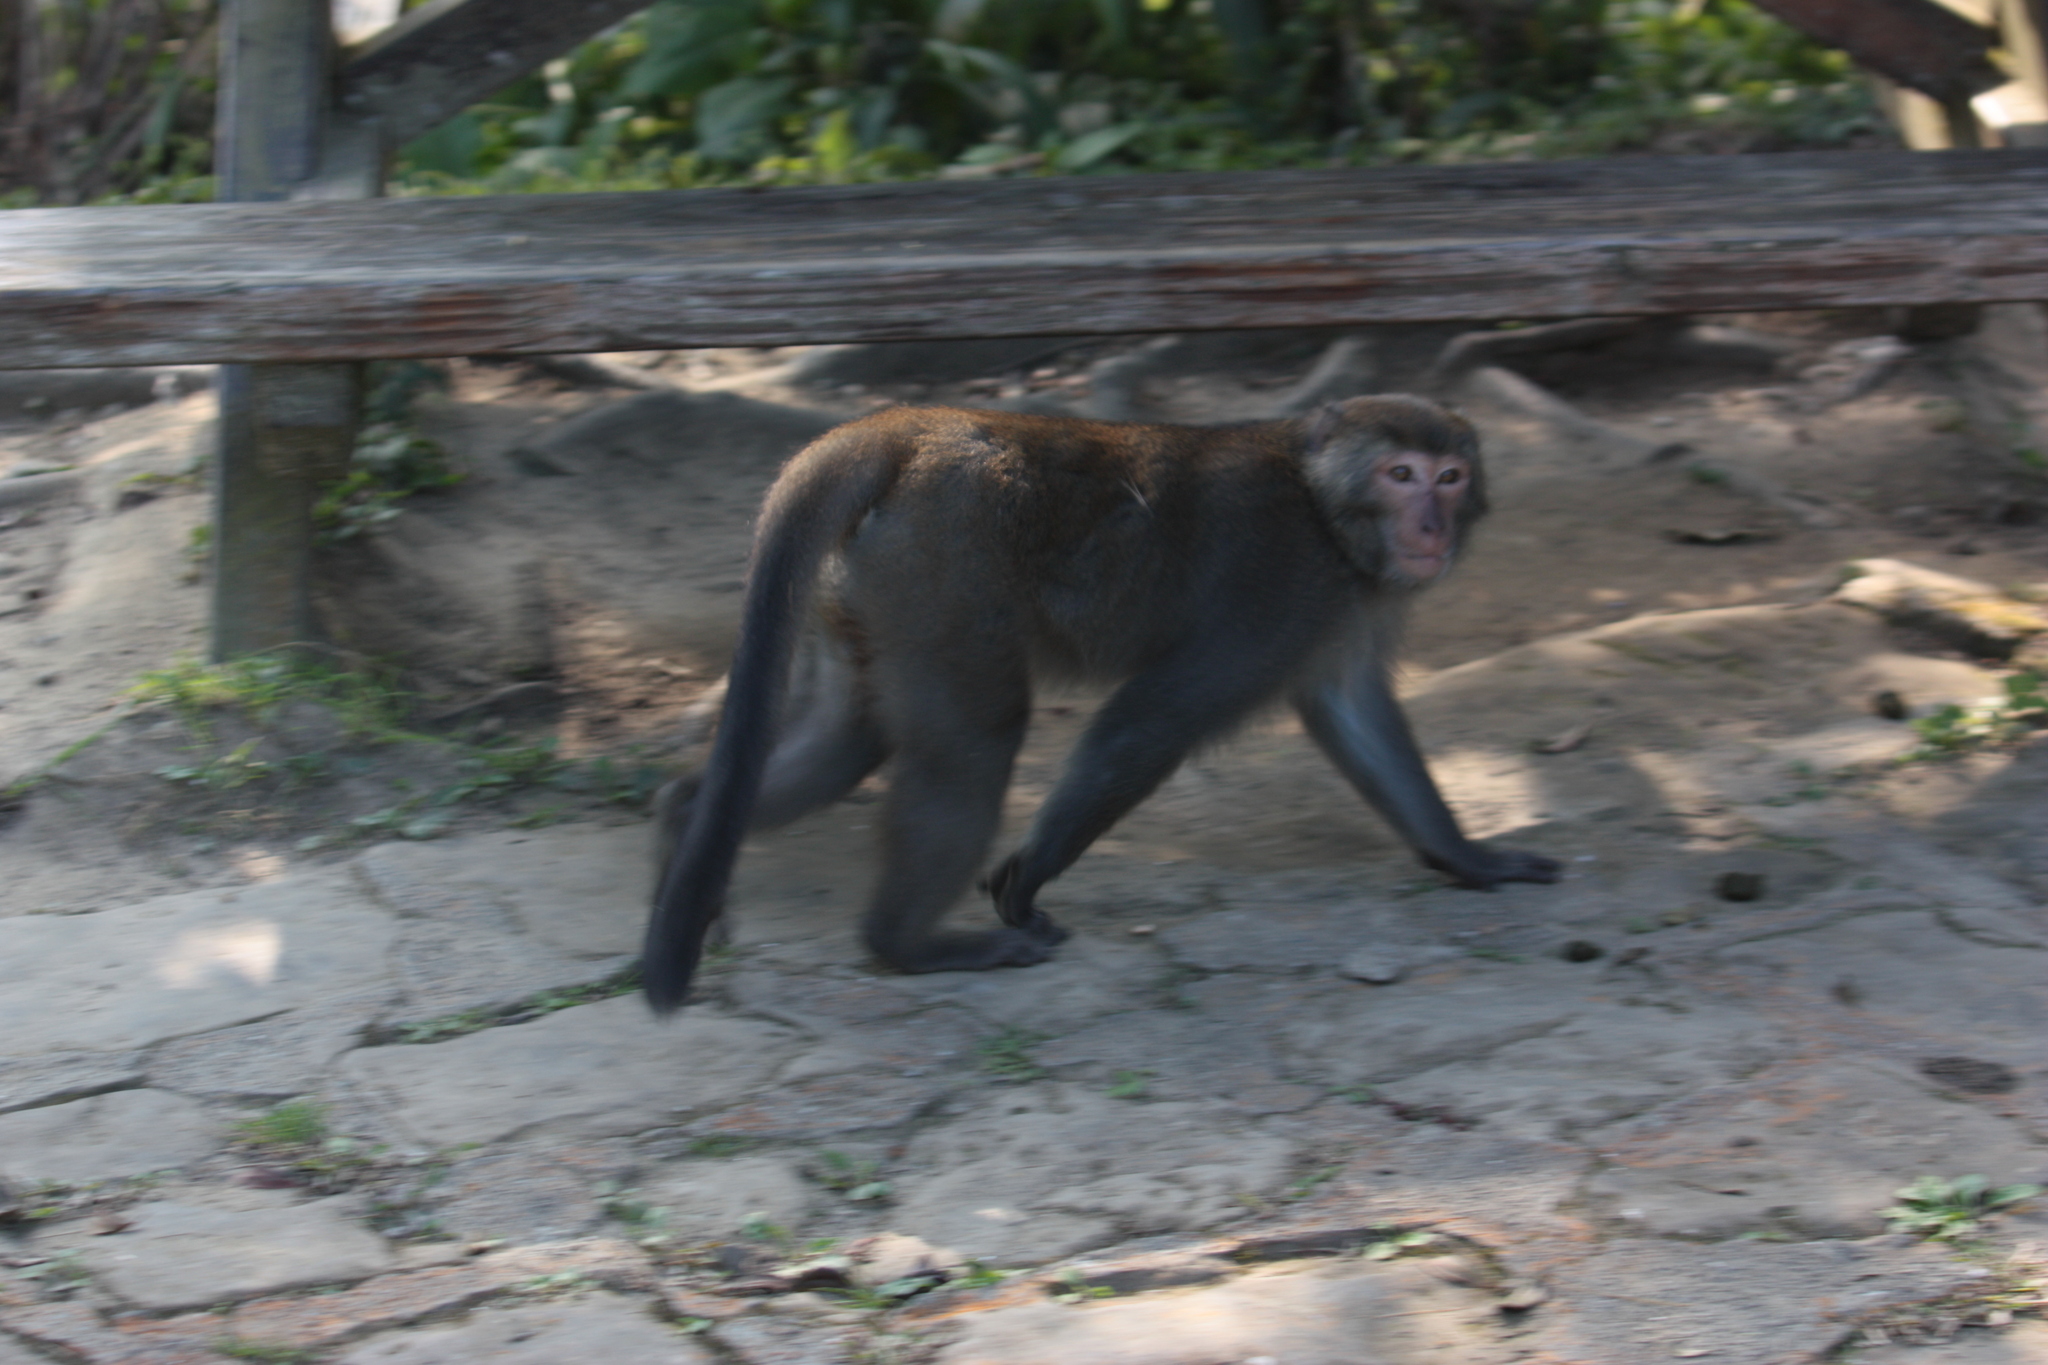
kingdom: Animalia
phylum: Chordata
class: Mammalia
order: Primates
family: Cercopithecidae
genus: Macaca
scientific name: Macaca cyclopis
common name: Formosan rock macaque
